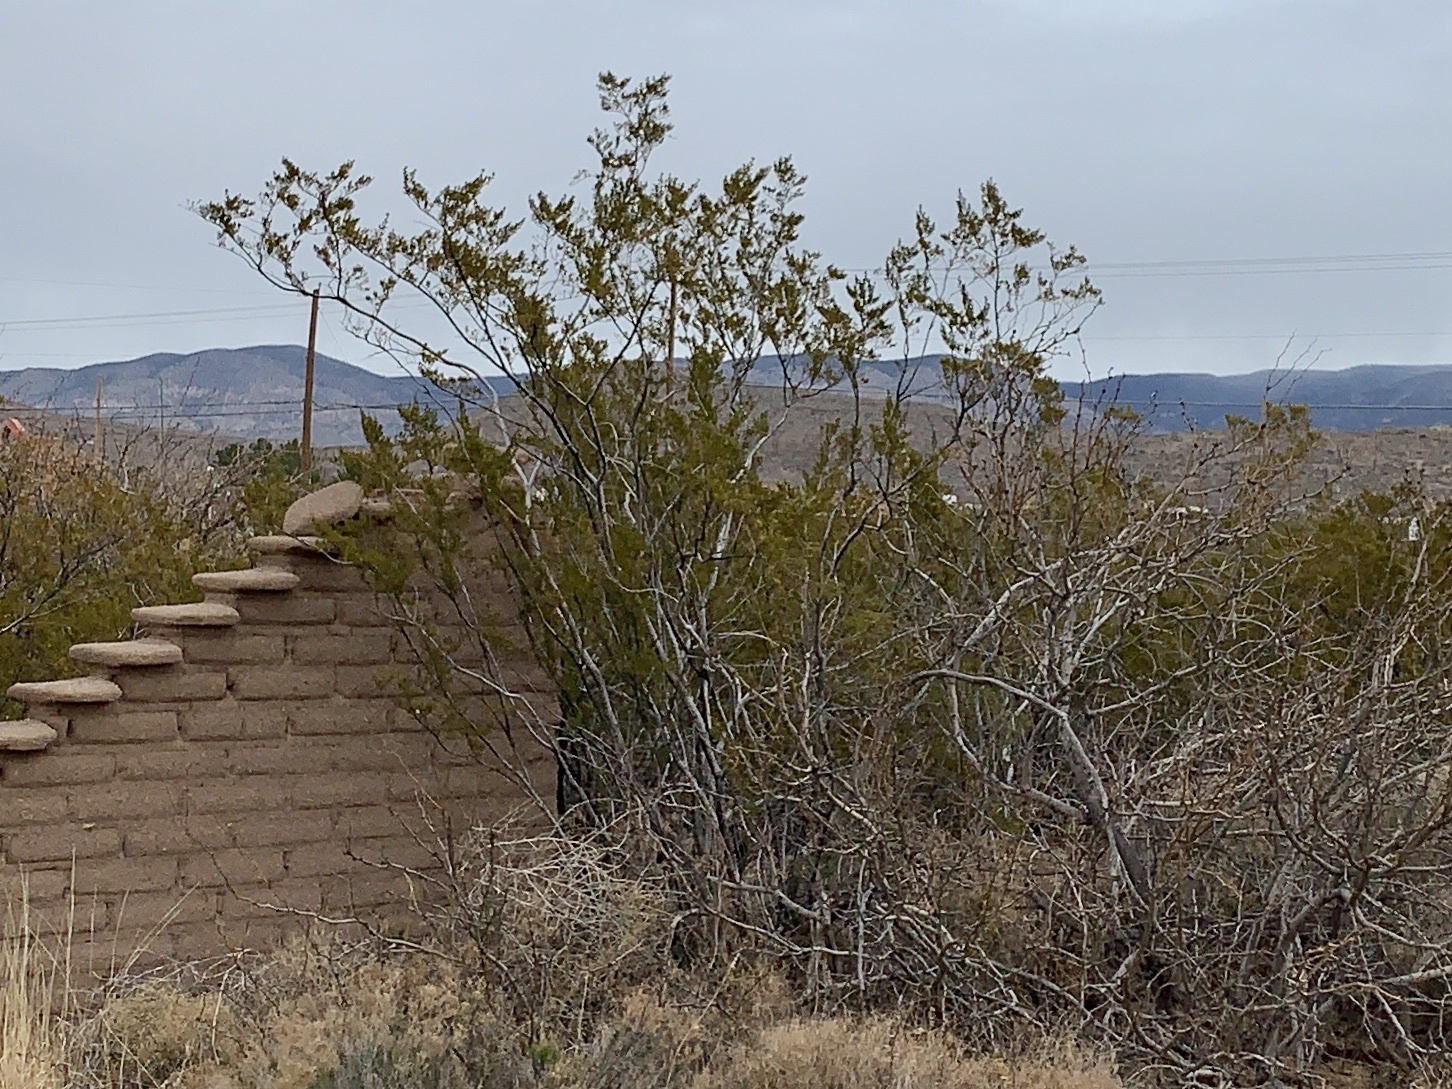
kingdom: Plantae
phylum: Tracheophyta
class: Magnoliopsida
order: Zygophyllales
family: Zygophyllaceae
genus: Larrea
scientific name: Larrea tridentata
